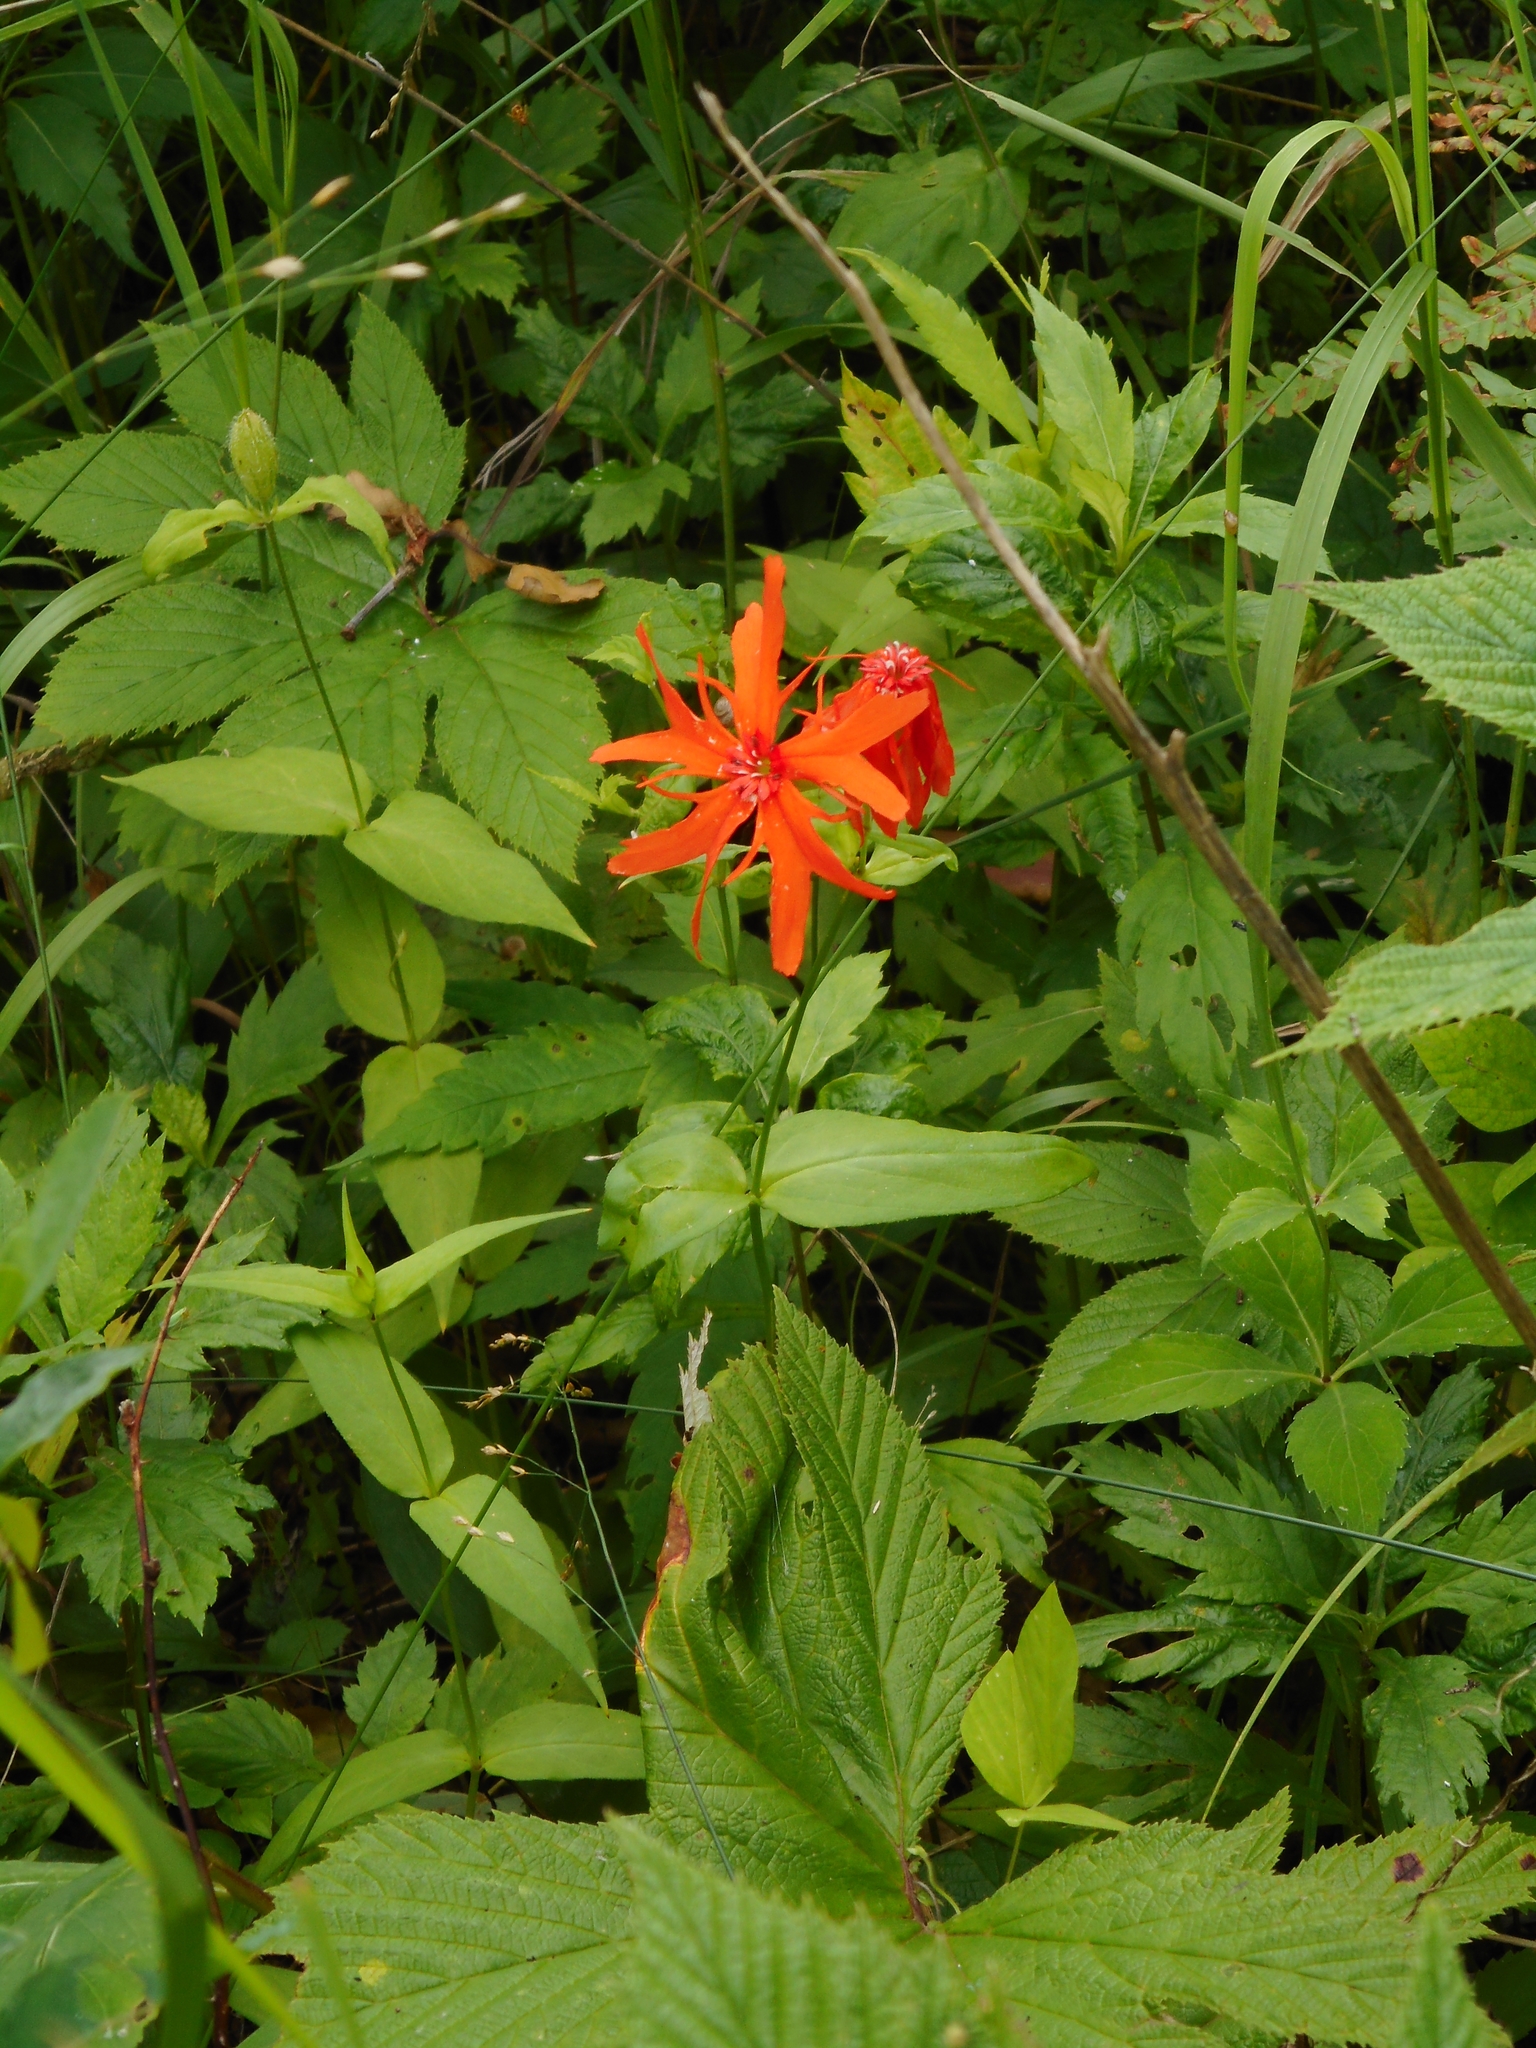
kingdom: Plantae
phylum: Tracheophyta
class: Magnoliopsida
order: Caryophyllales
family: Caryophyllaceae
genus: Silene
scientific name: Silene banksia
